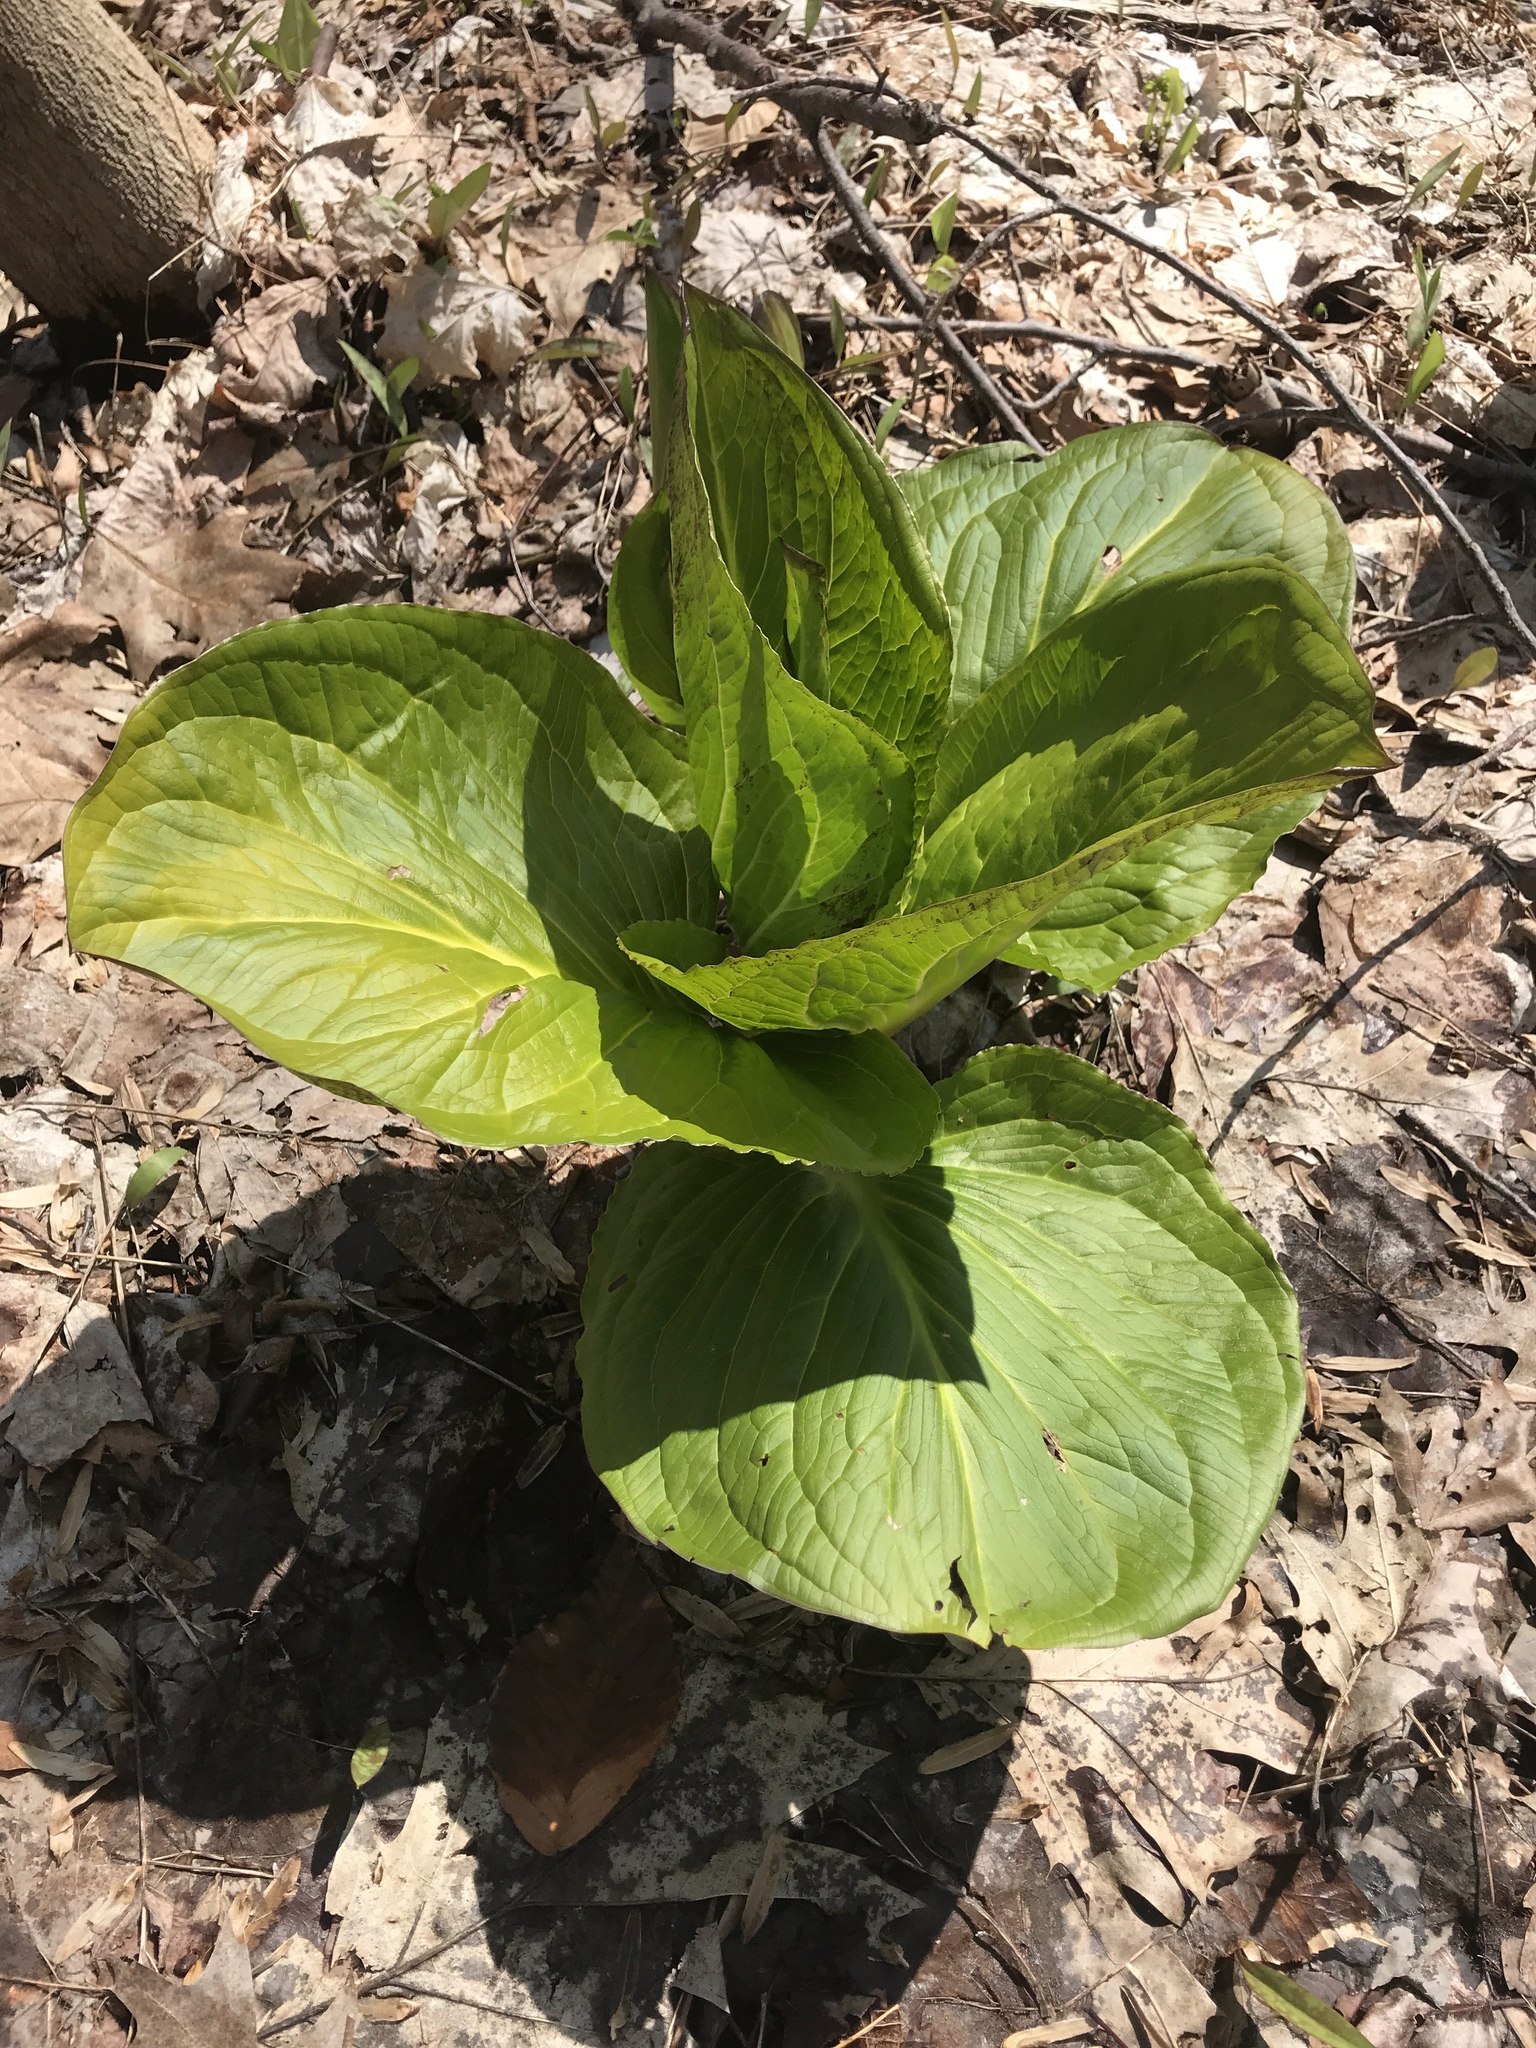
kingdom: Plantae
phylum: Tracheophyta
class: Liliopsida
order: Alismatales
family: Araceae
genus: Symplocarpus
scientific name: Symplocarpus foetidus
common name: Eastern skunk cabbage
